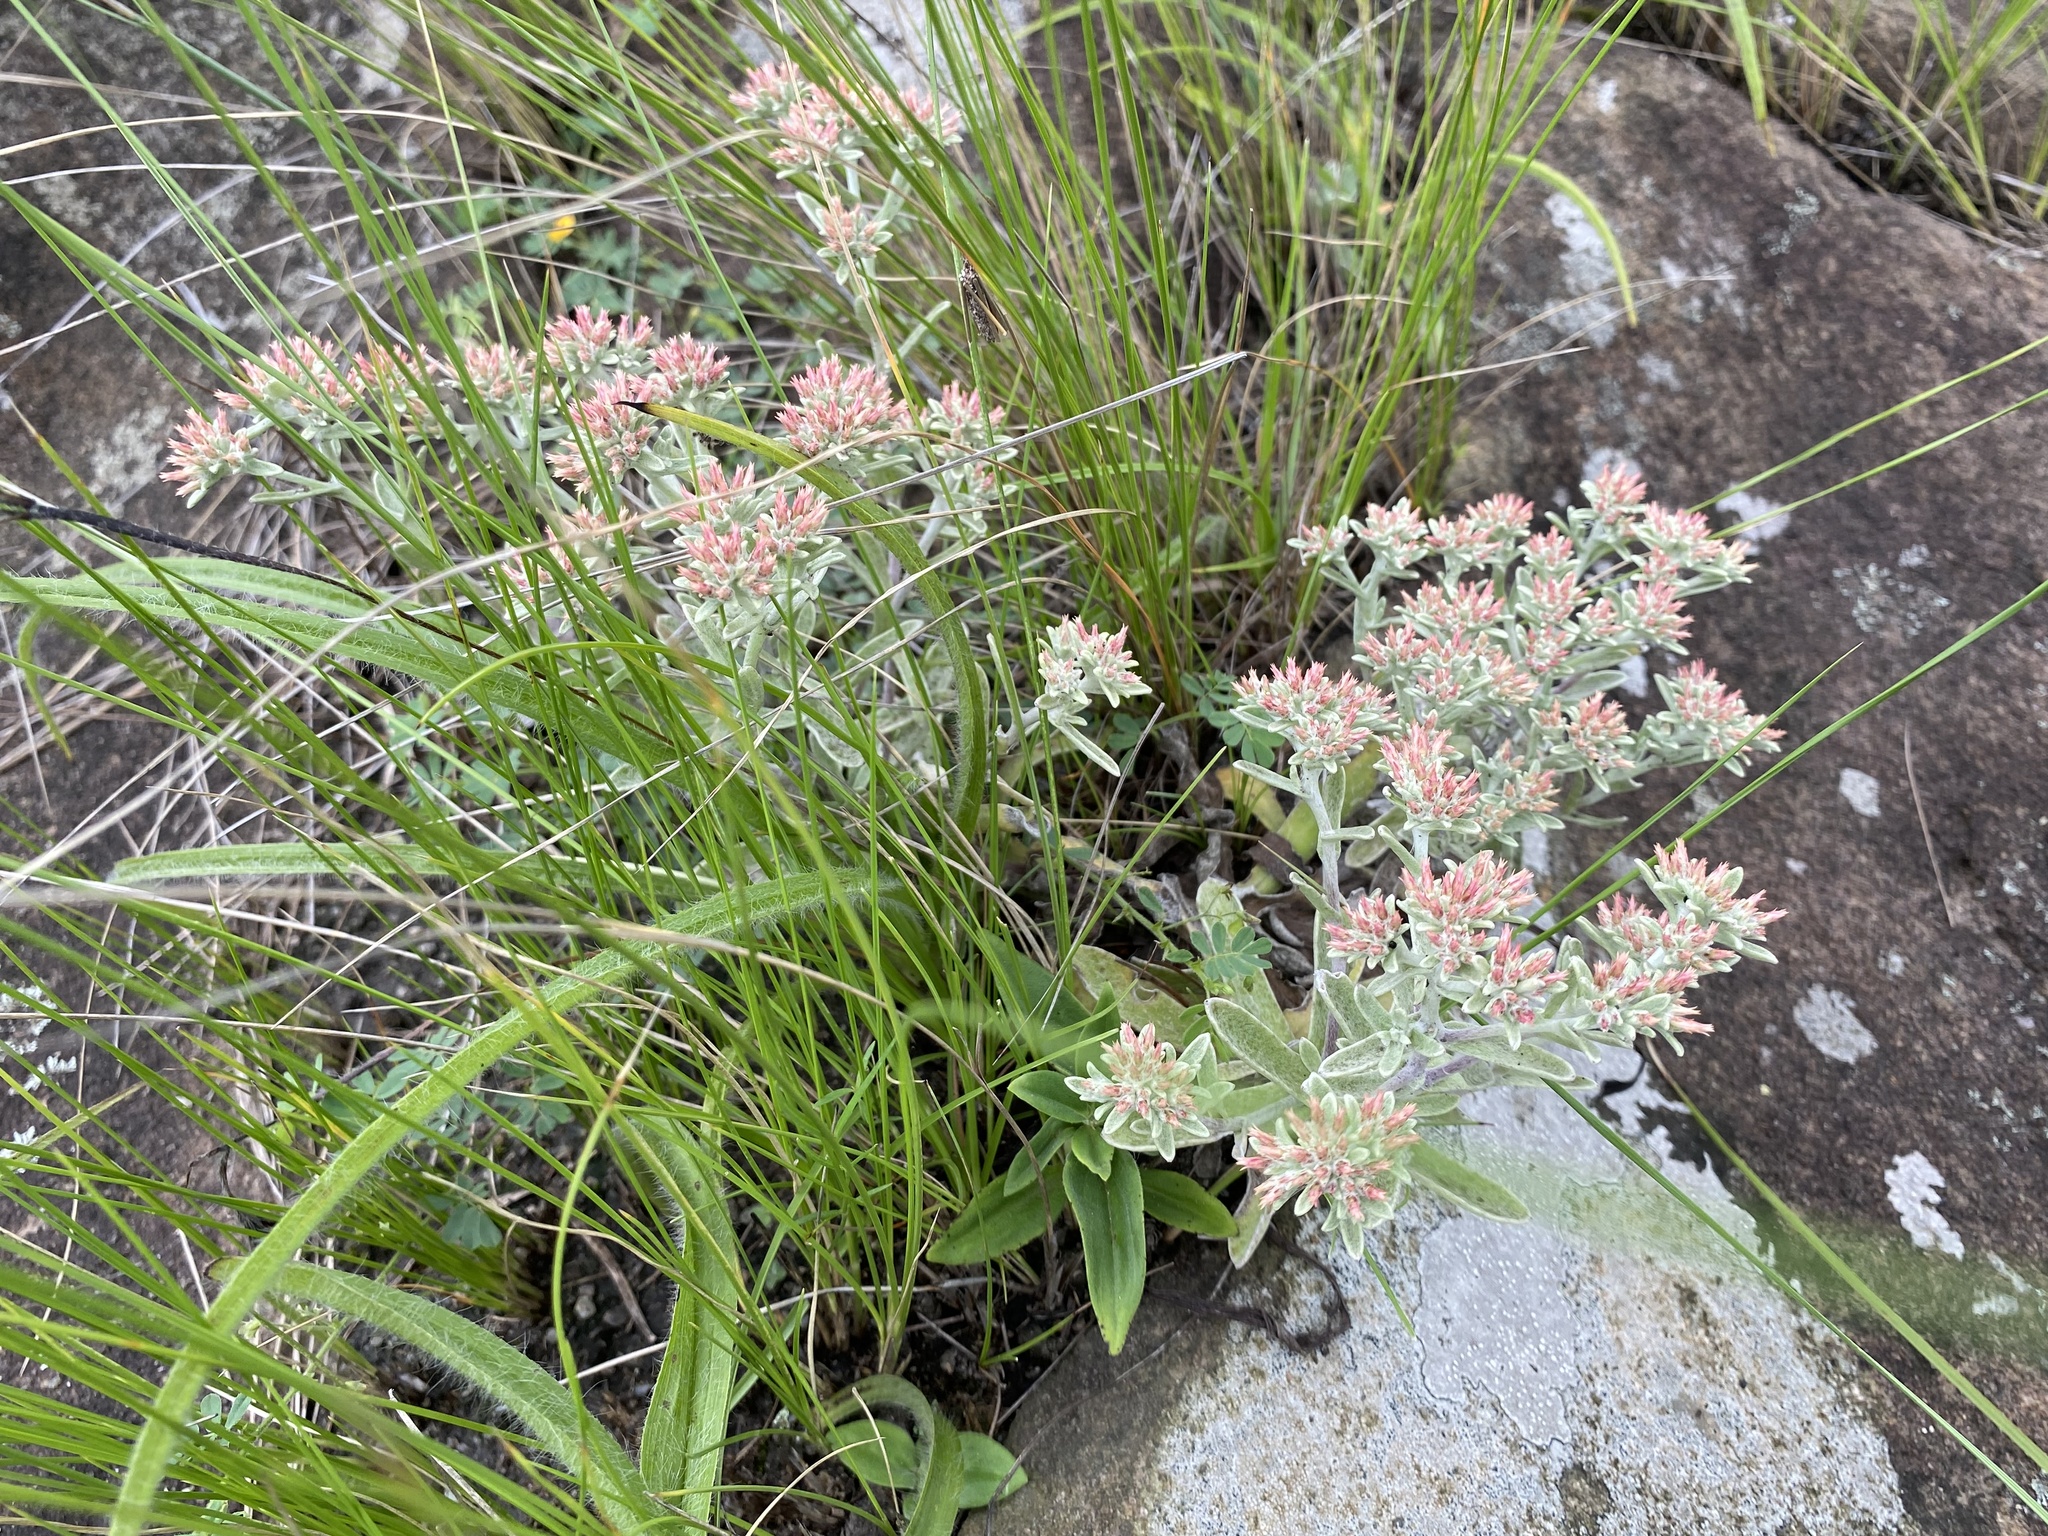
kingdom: Plantae
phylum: Tracheophyta
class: Magnoliopsida
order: Asterales
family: Asteraceae
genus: Helichrysum
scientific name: Helichrysum spiralepis
